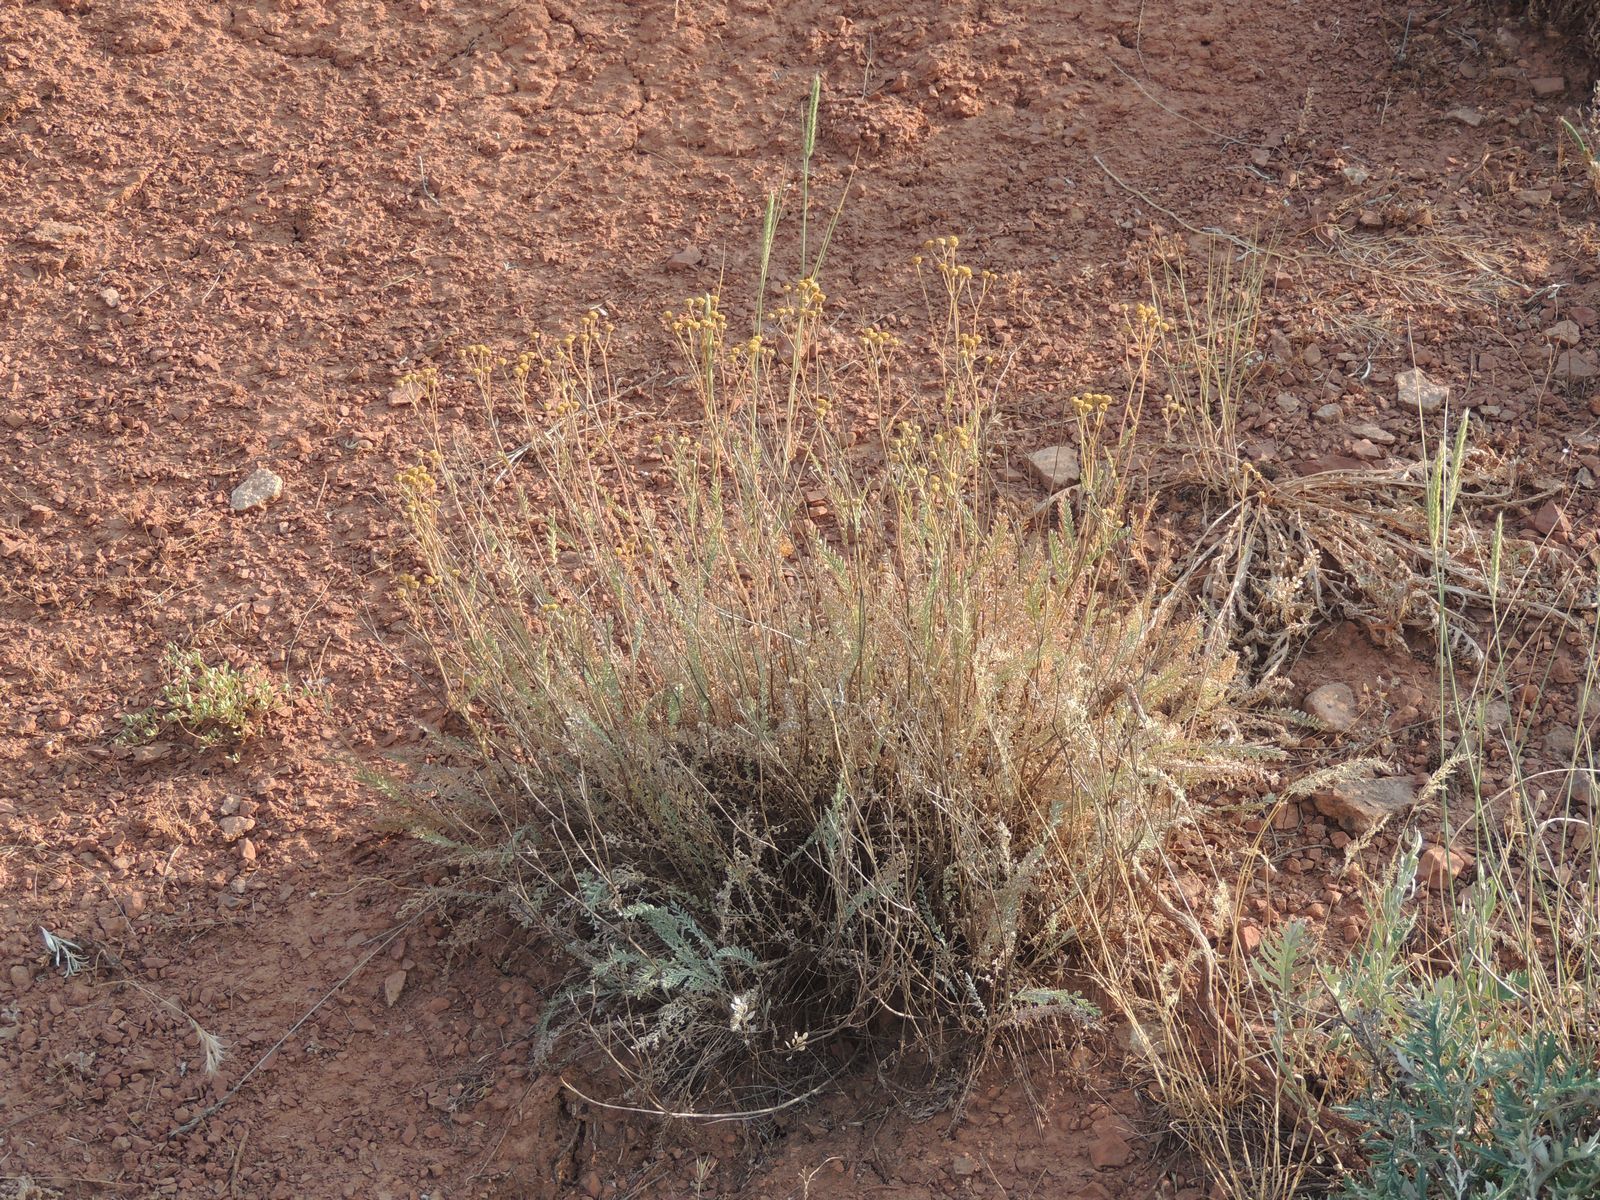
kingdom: Plantae
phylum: Tracheophyta
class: Magnoliopsida
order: Asterales
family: Asteraceae
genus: Tanacetum
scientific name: Tanacetum achilleifolium
